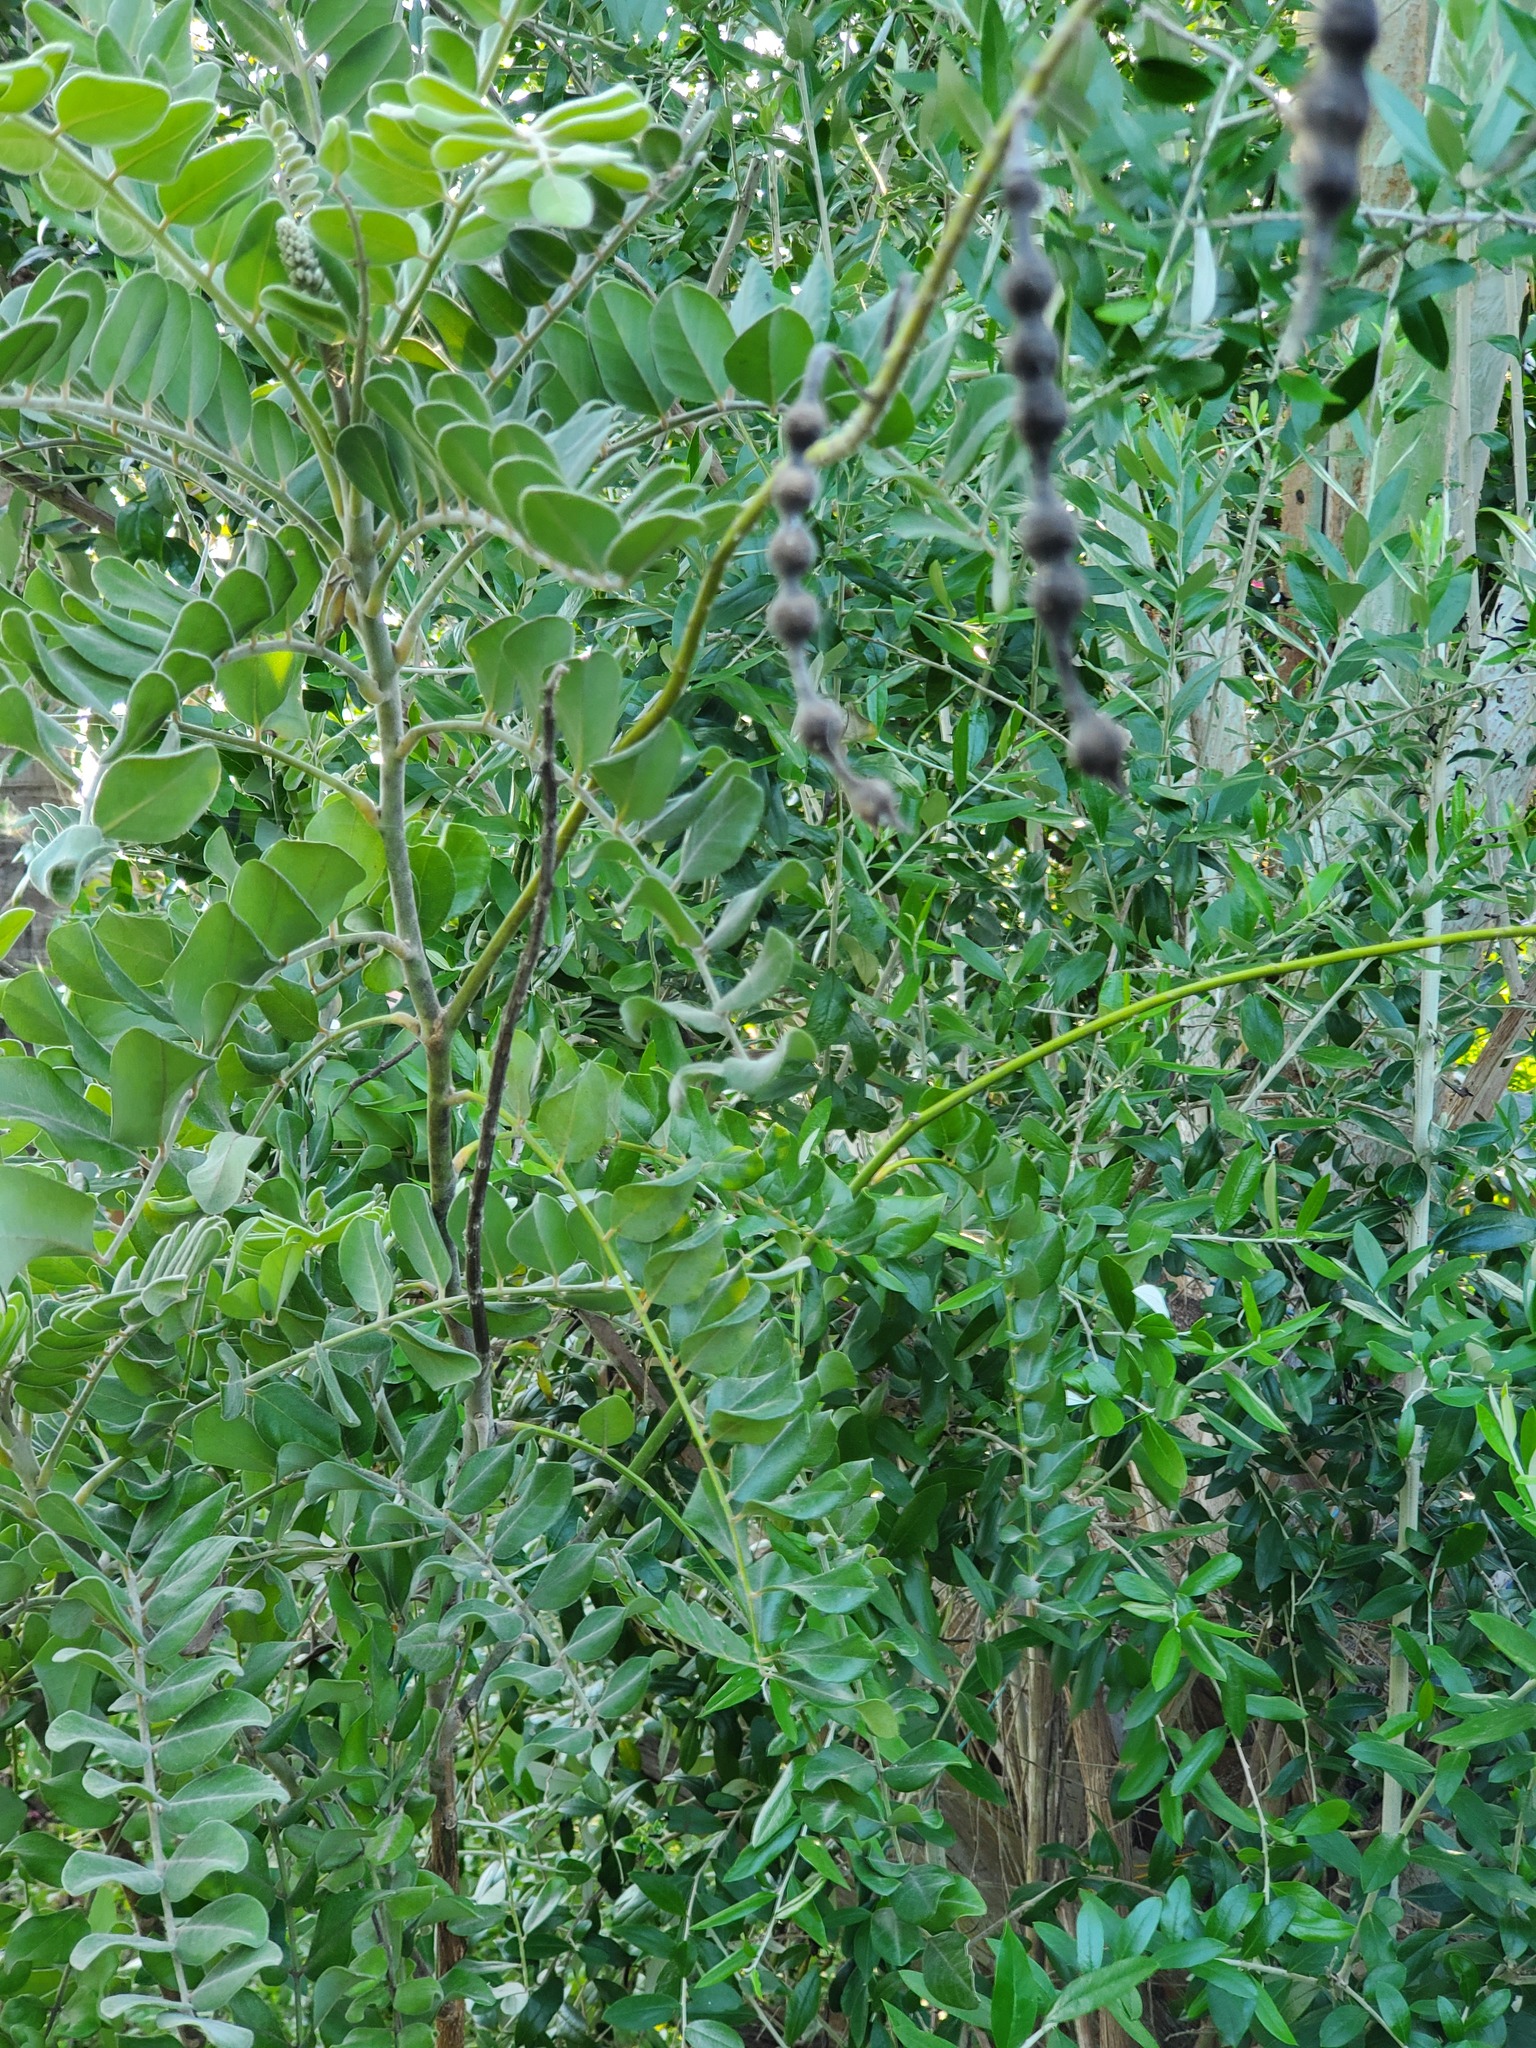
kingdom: Plantae
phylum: Tracheophyta
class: Magnoliopsida
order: Fabales
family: Fabaceae
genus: Sophora
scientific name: Sophora tomentosa
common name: Yellow necklacepod
